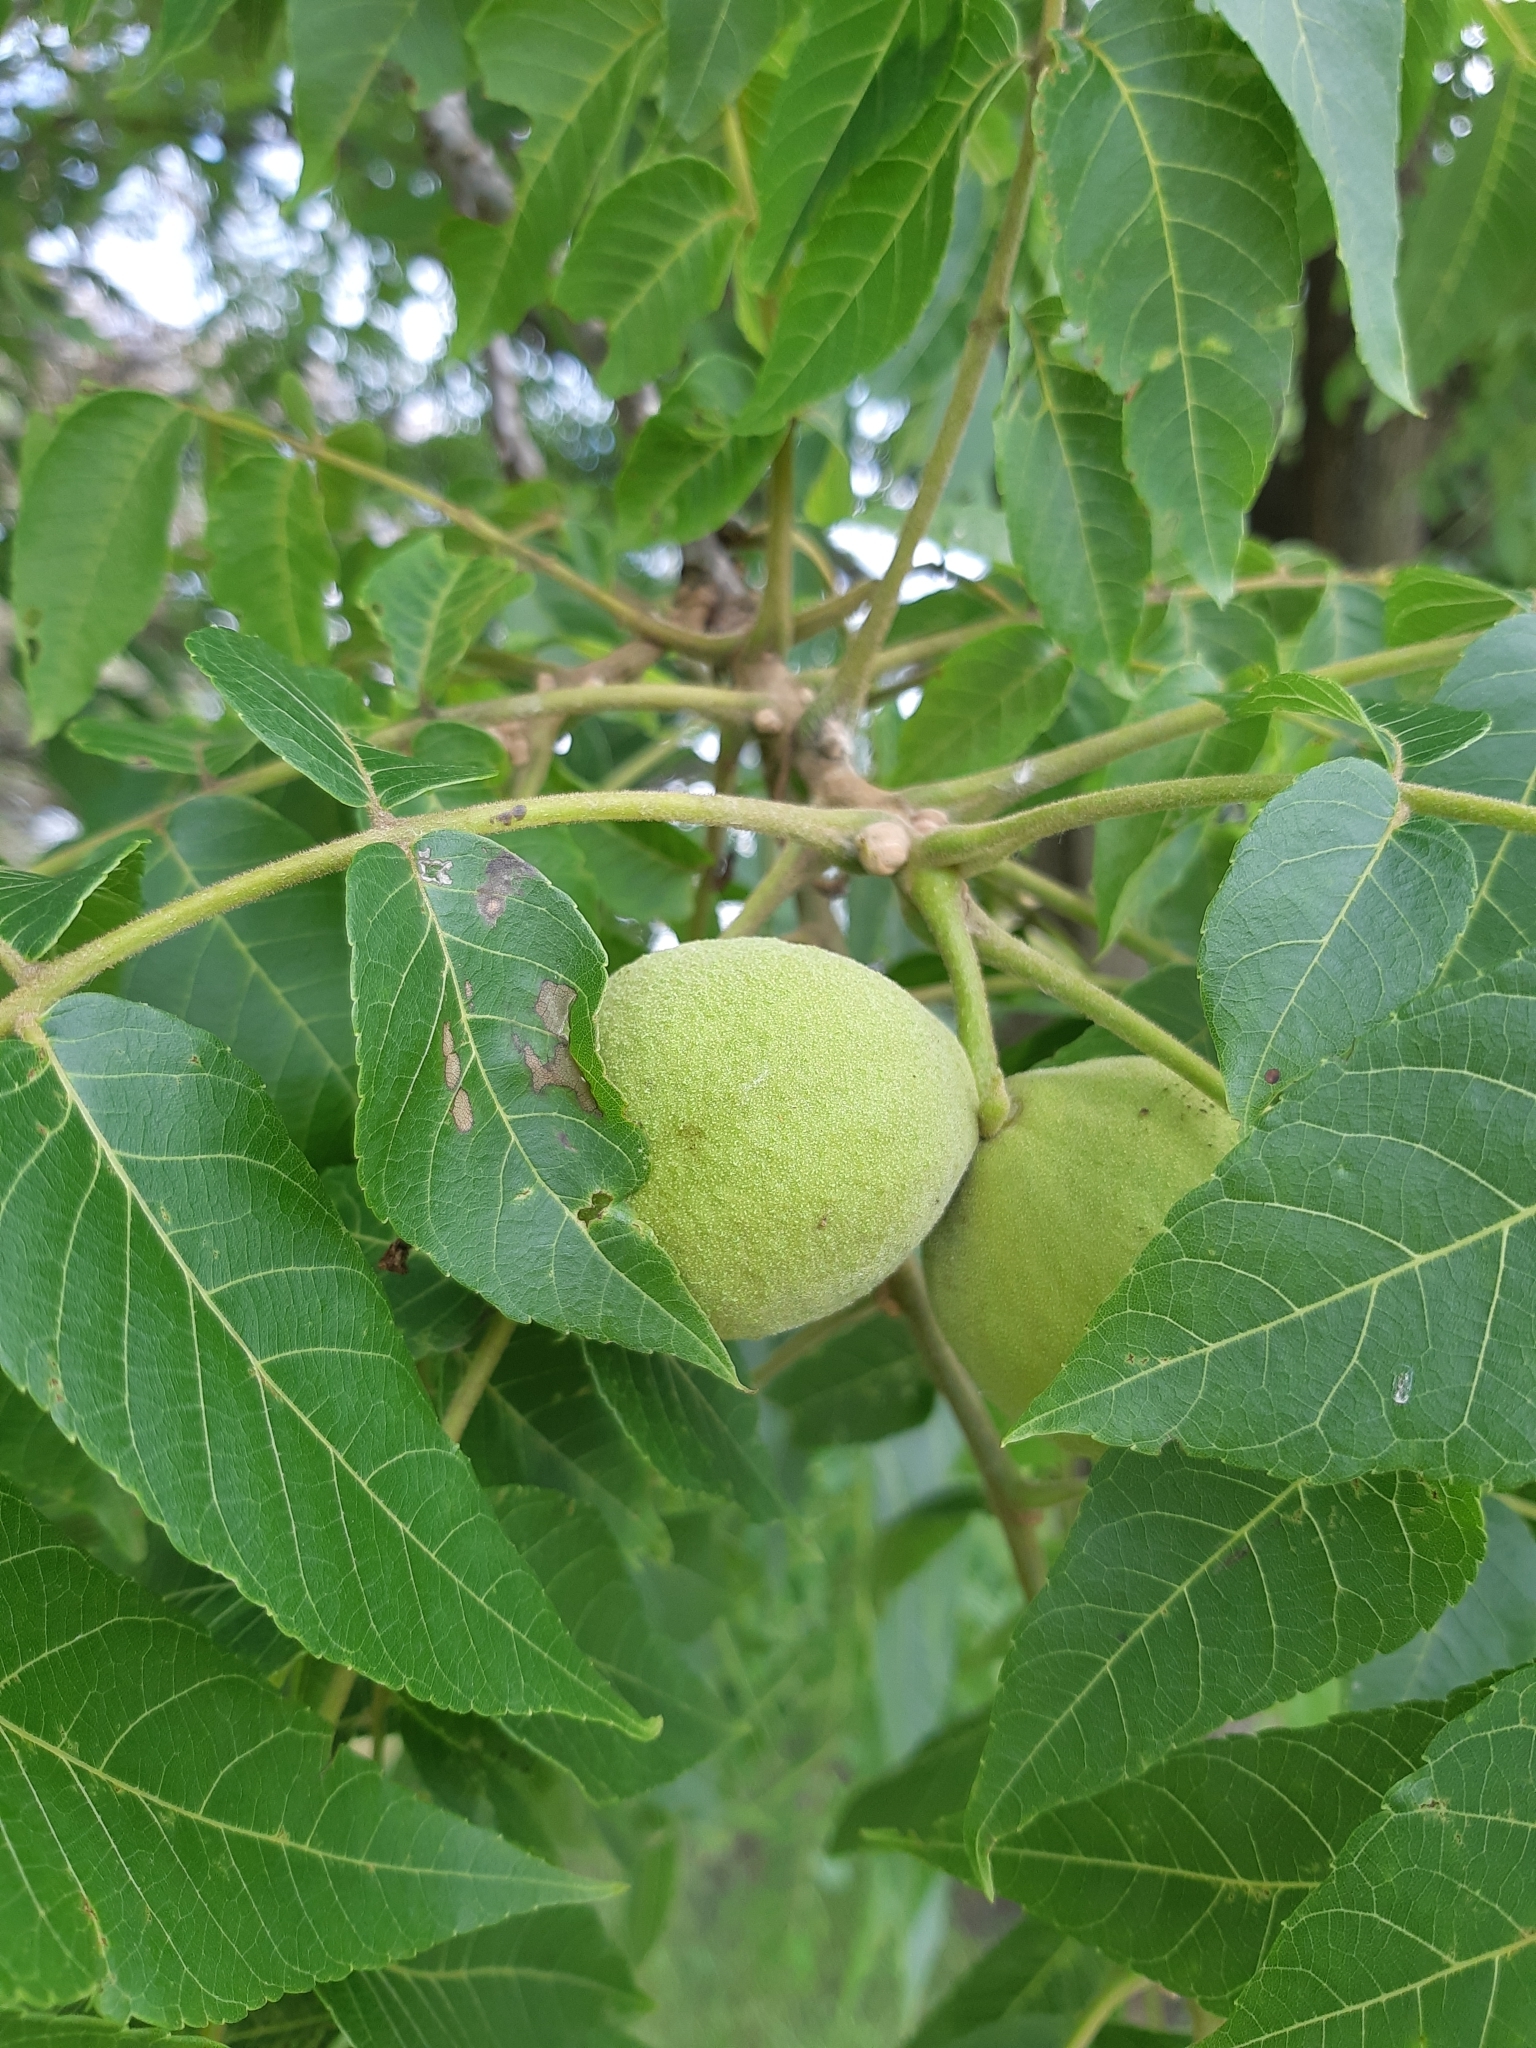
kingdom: Plantae
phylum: Tracheophyta
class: Magnoliopsida
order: Fagales
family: Juglandaceae
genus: Juglans
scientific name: Juglans nigra
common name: Black walnut
